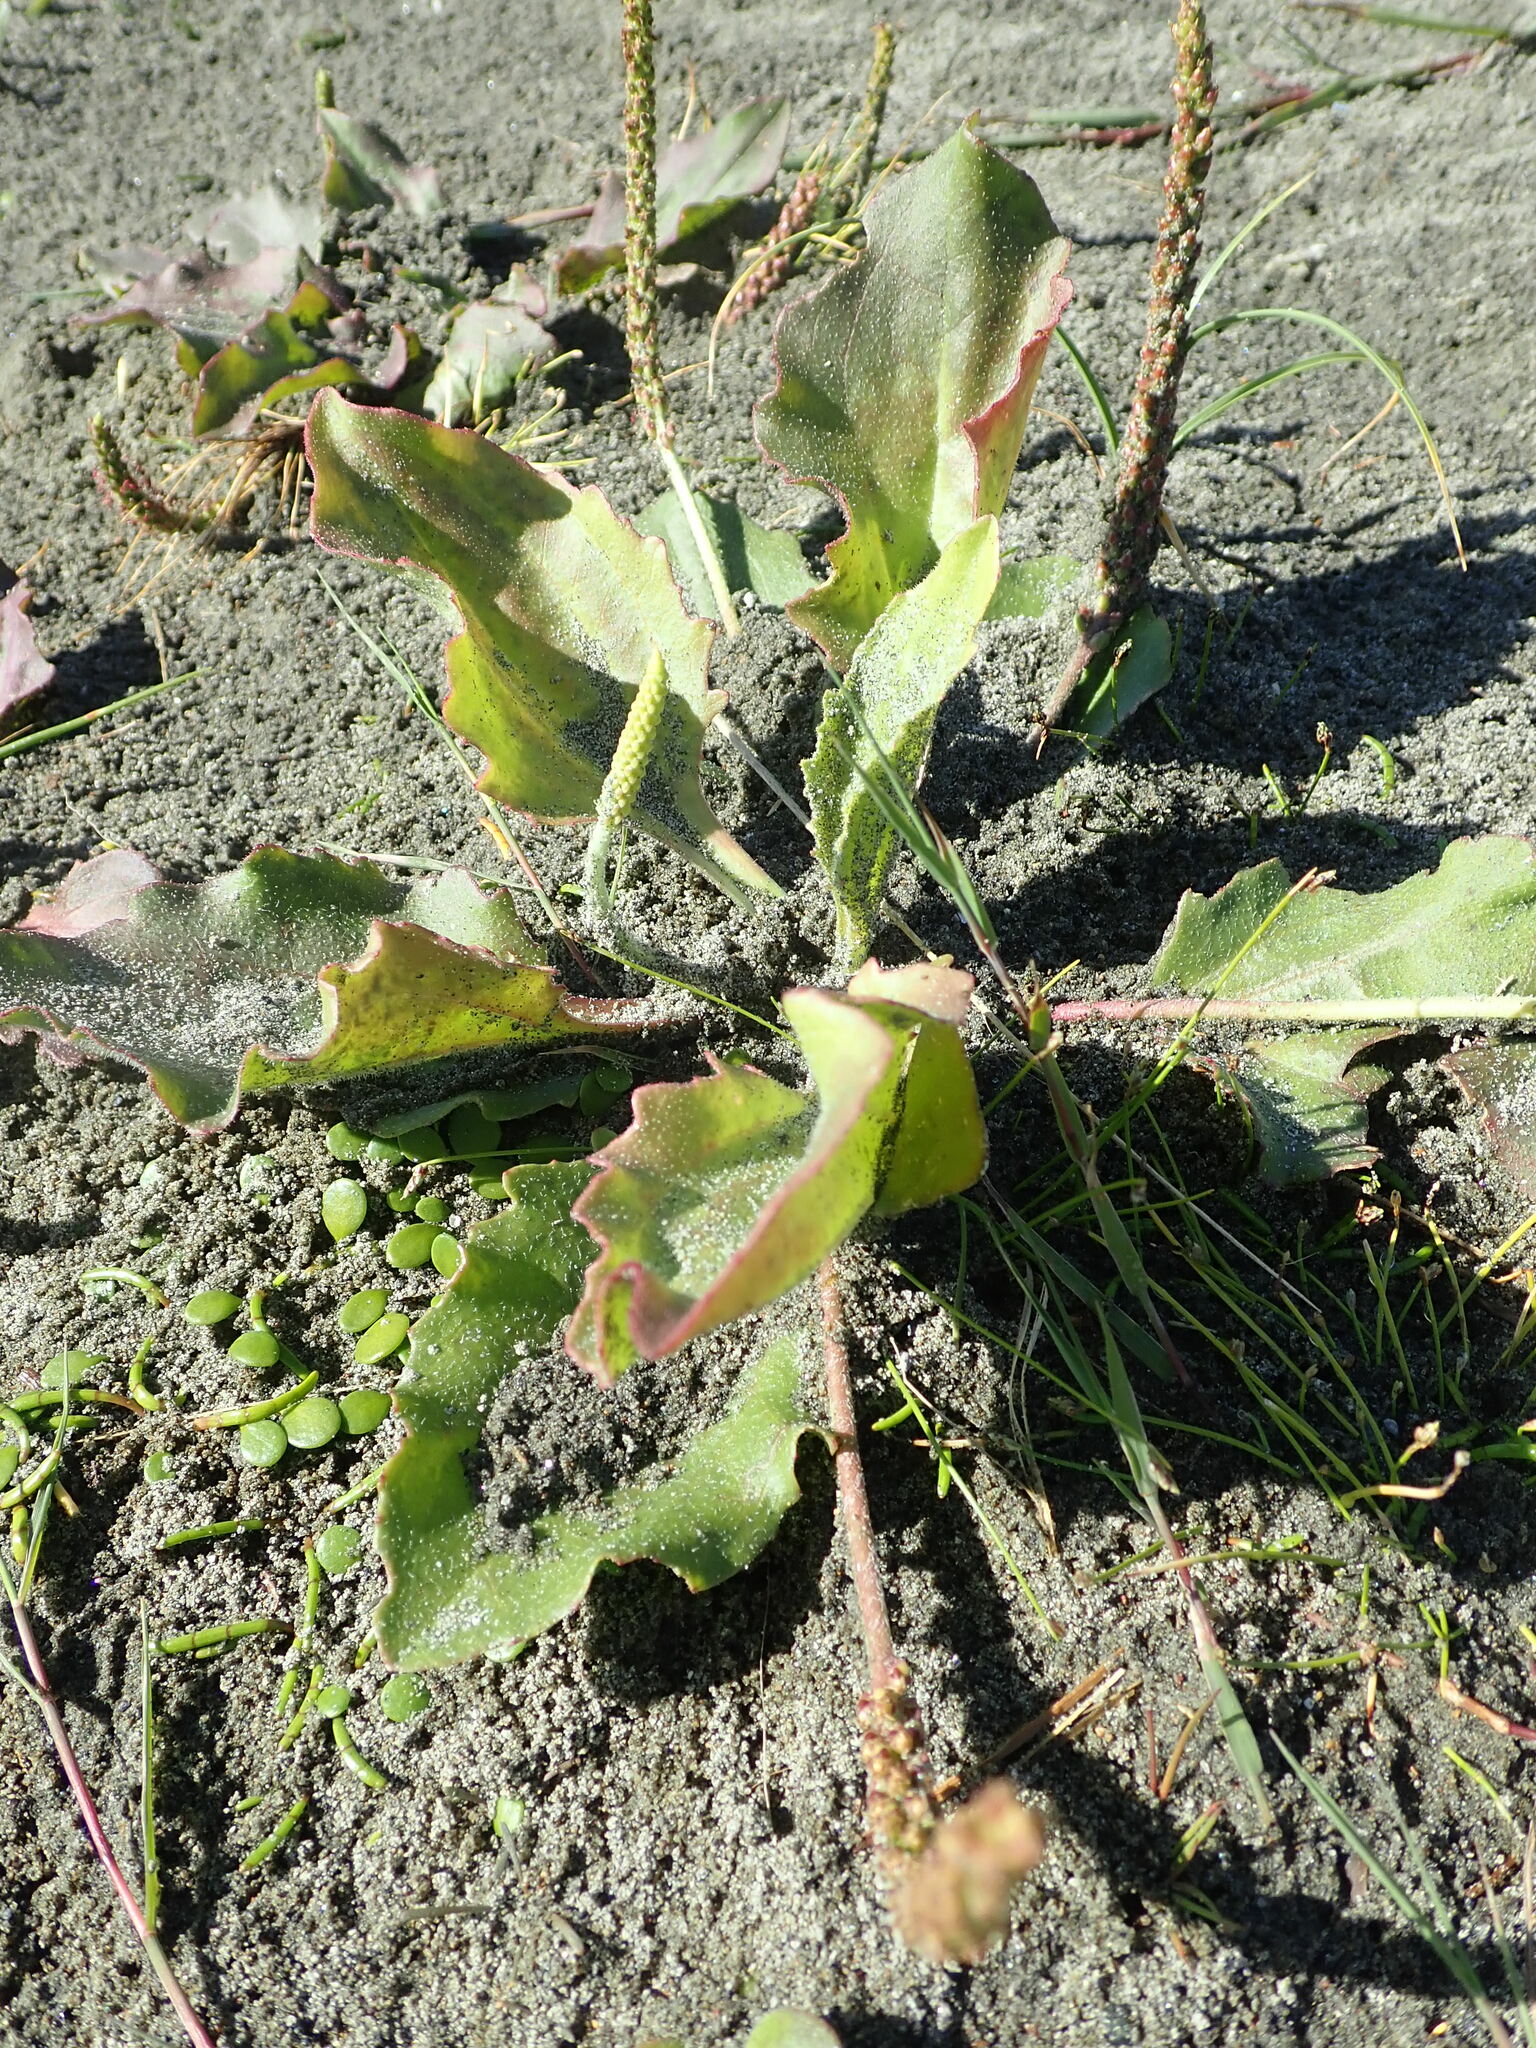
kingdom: Plantae
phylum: Tracheophyta
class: Magnoliopsida
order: Lamiales
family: Plantaginaceae
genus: Plantago
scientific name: Plantago australis
